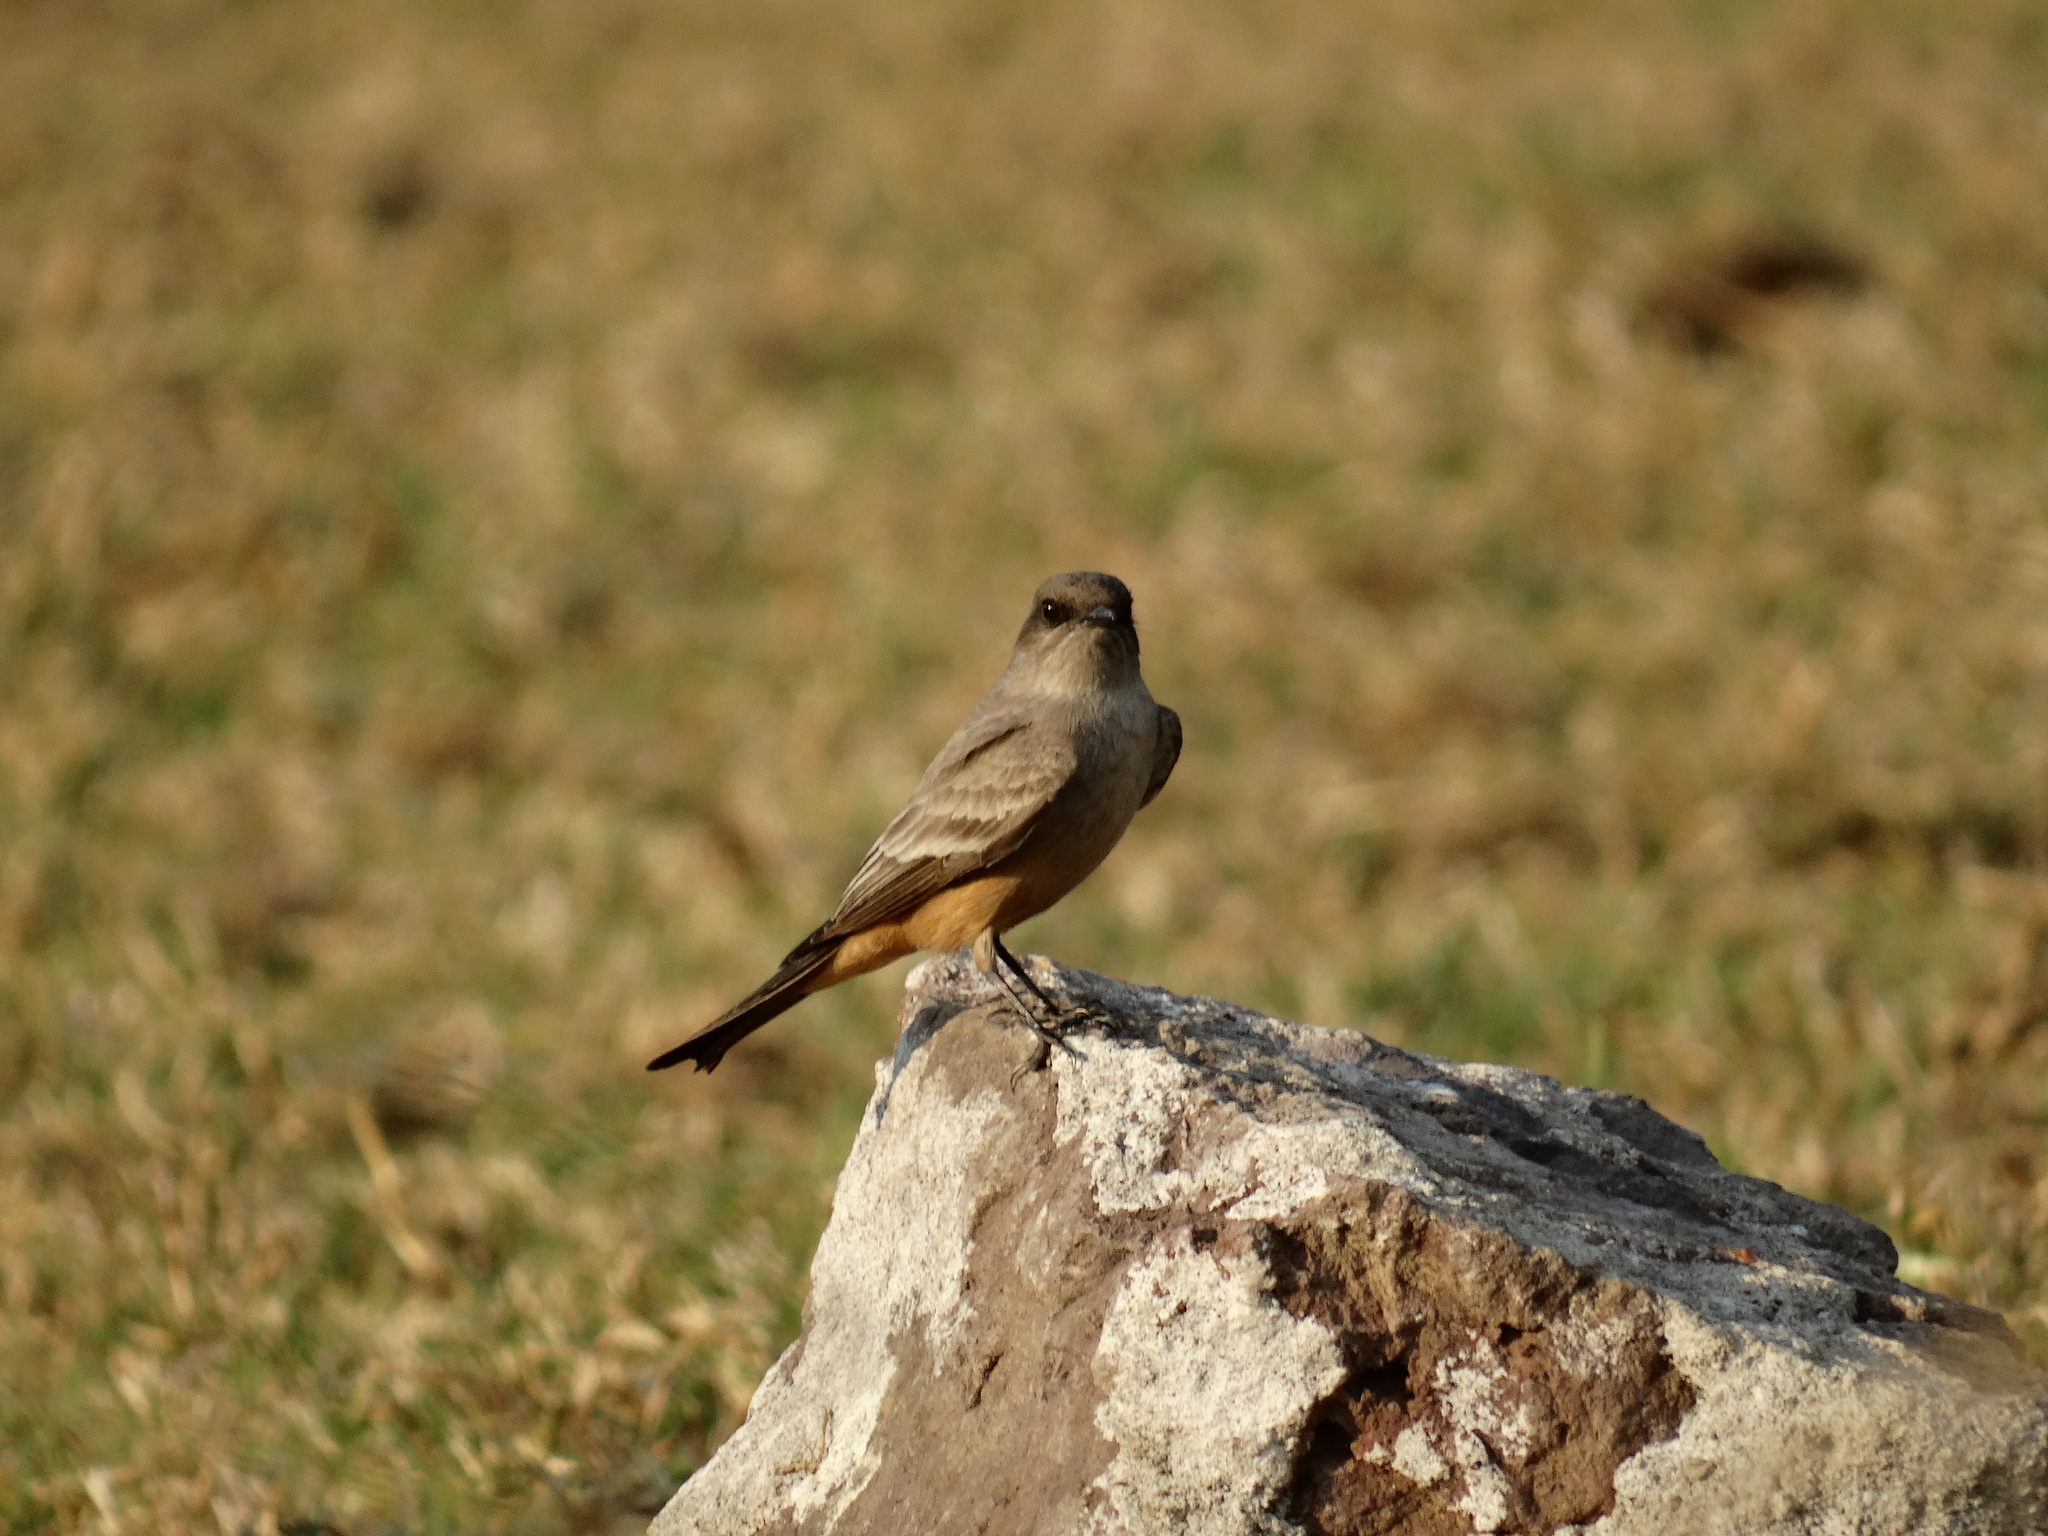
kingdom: Animalia
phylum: Chordata
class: Aves
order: Passeriformes
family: Tyrannidae
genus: Sayornis
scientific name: Sayornis saya
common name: Say's phoebe
